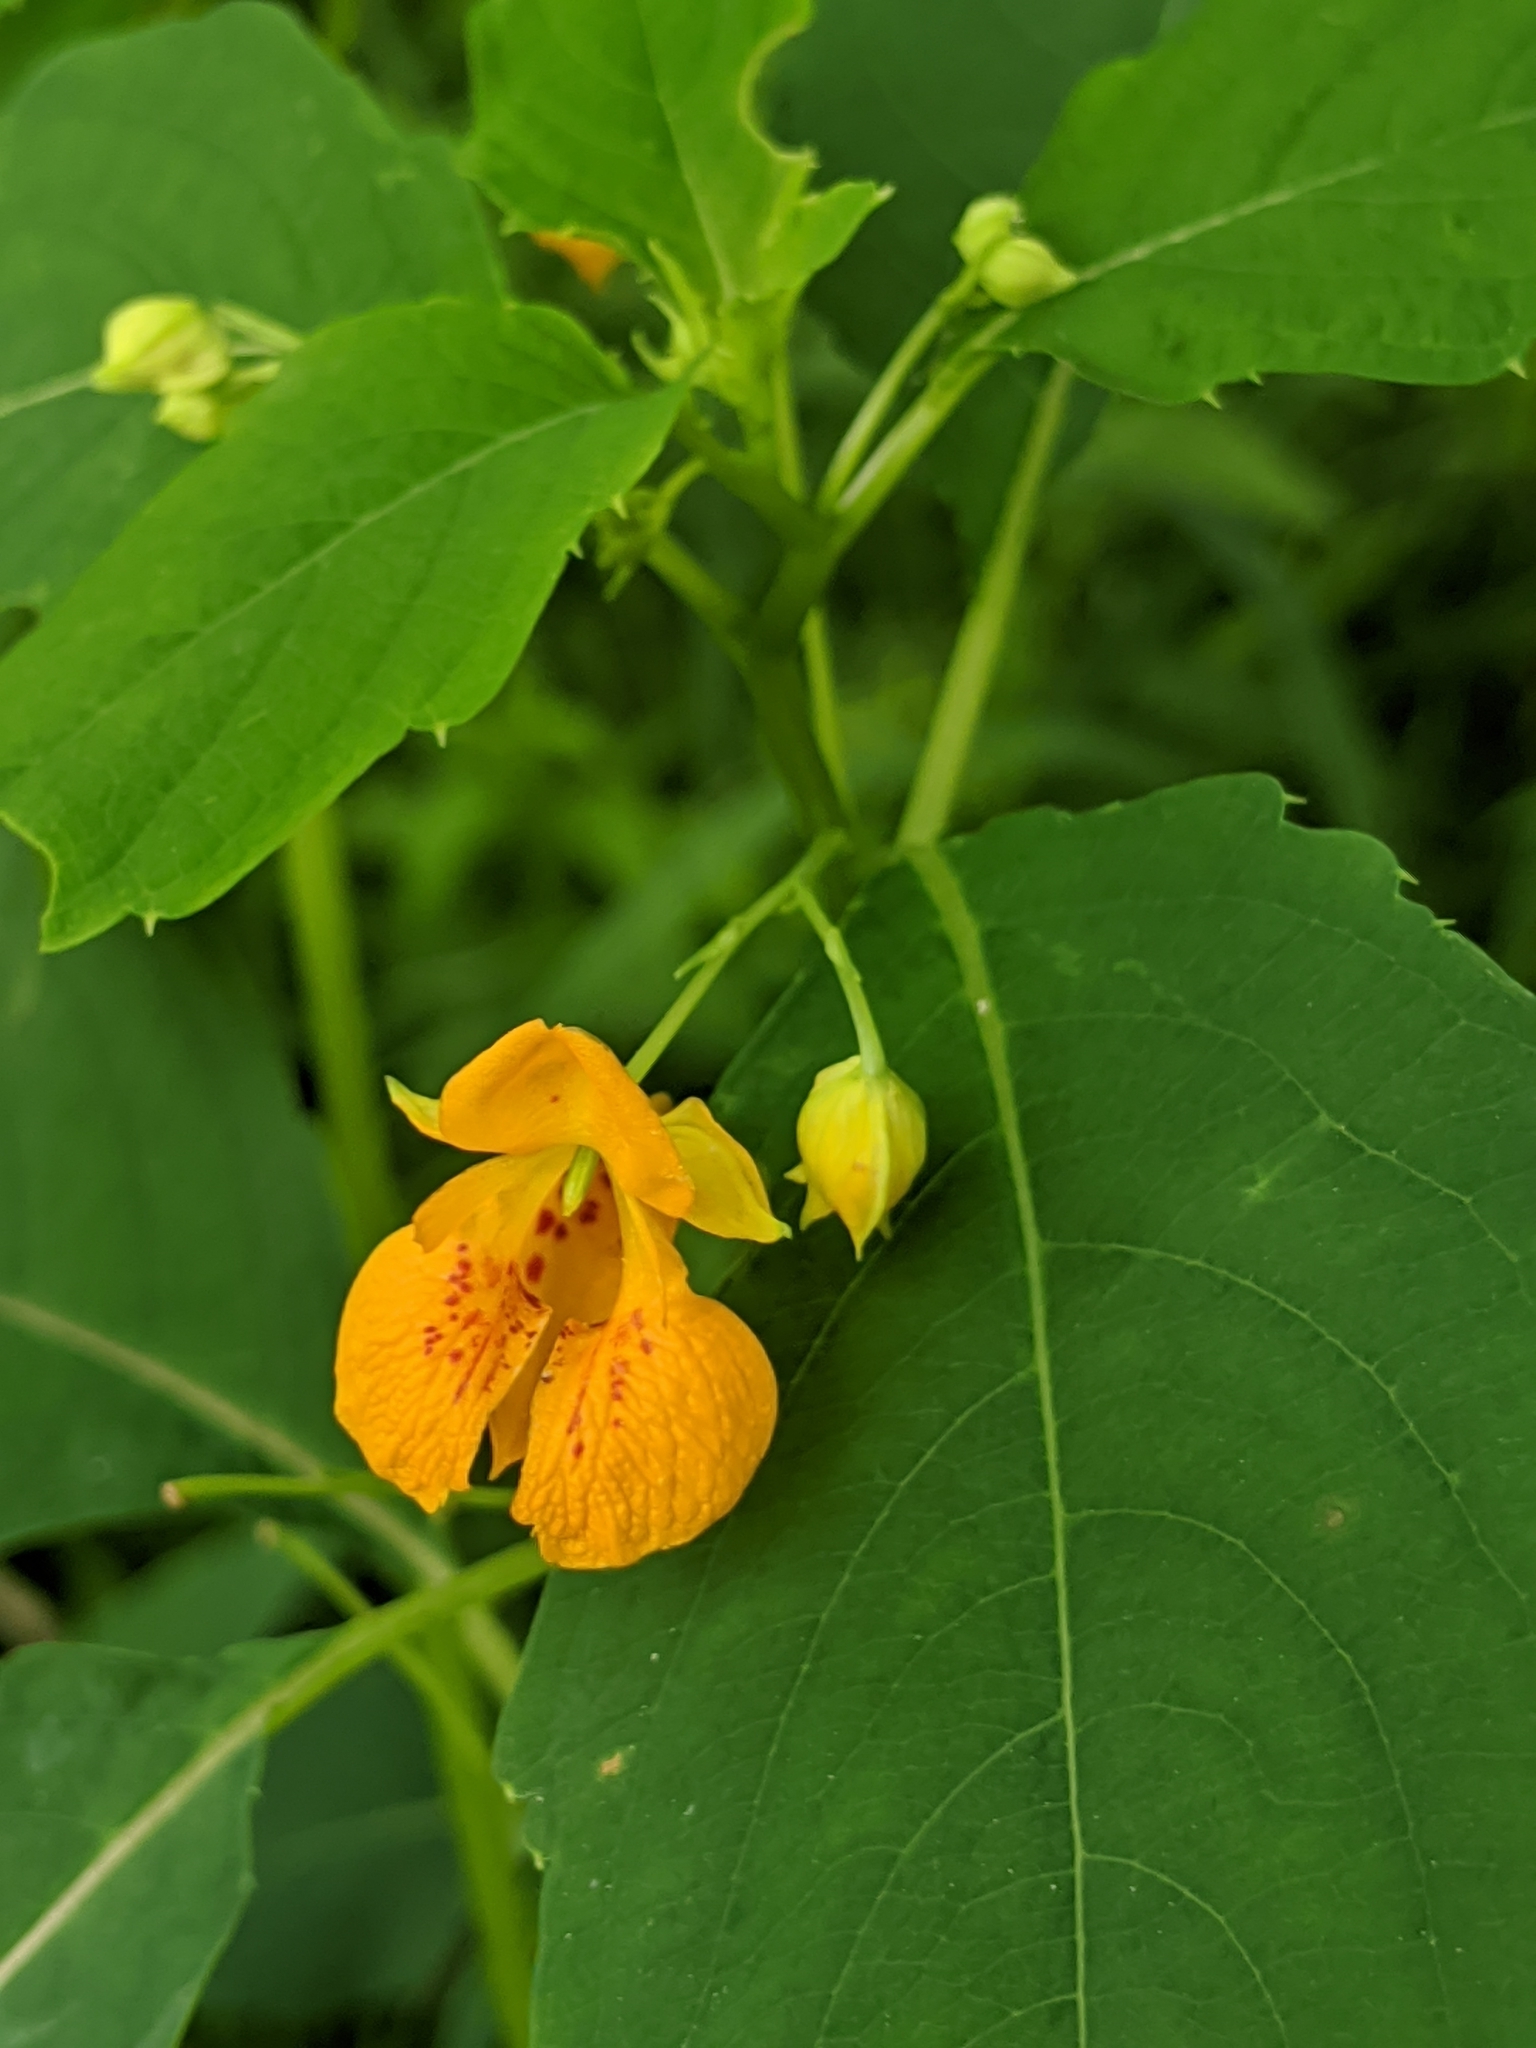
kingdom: Plantae
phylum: Tracheophyta
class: Magnoliopsida
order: Ericales
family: Balsaminaceae
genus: Impatiens
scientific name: Impatiens capensis
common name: Orange balsam
